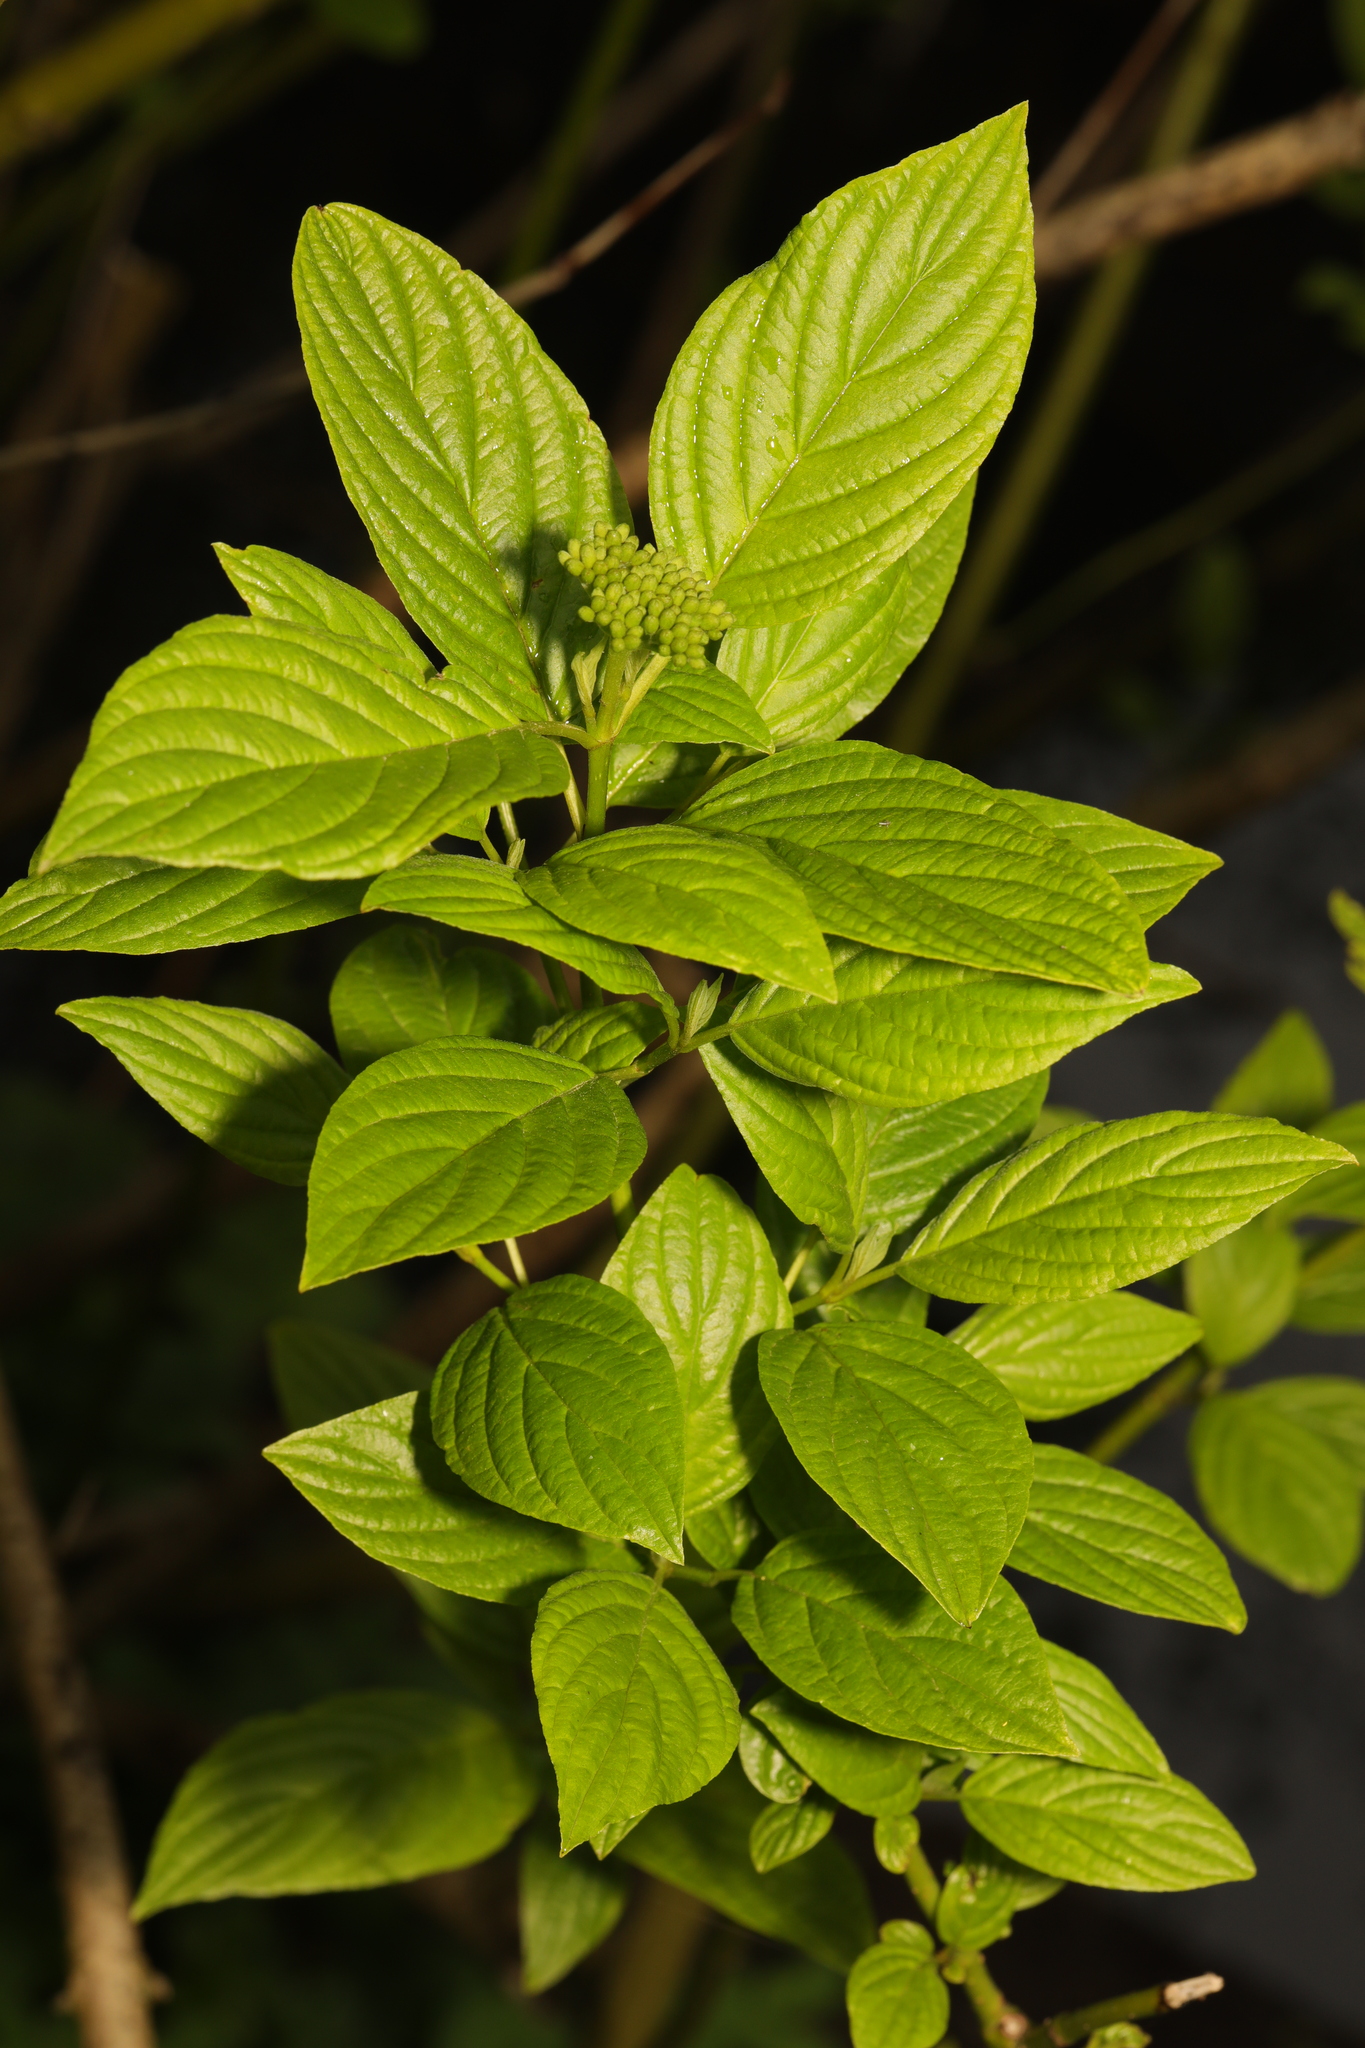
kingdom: Plantae
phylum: Tracheophyta
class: Magnoliopsida
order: Cornales
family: Cornaceae
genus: Cornus
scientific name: Cornus sericea
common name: Red-osier dogwood
